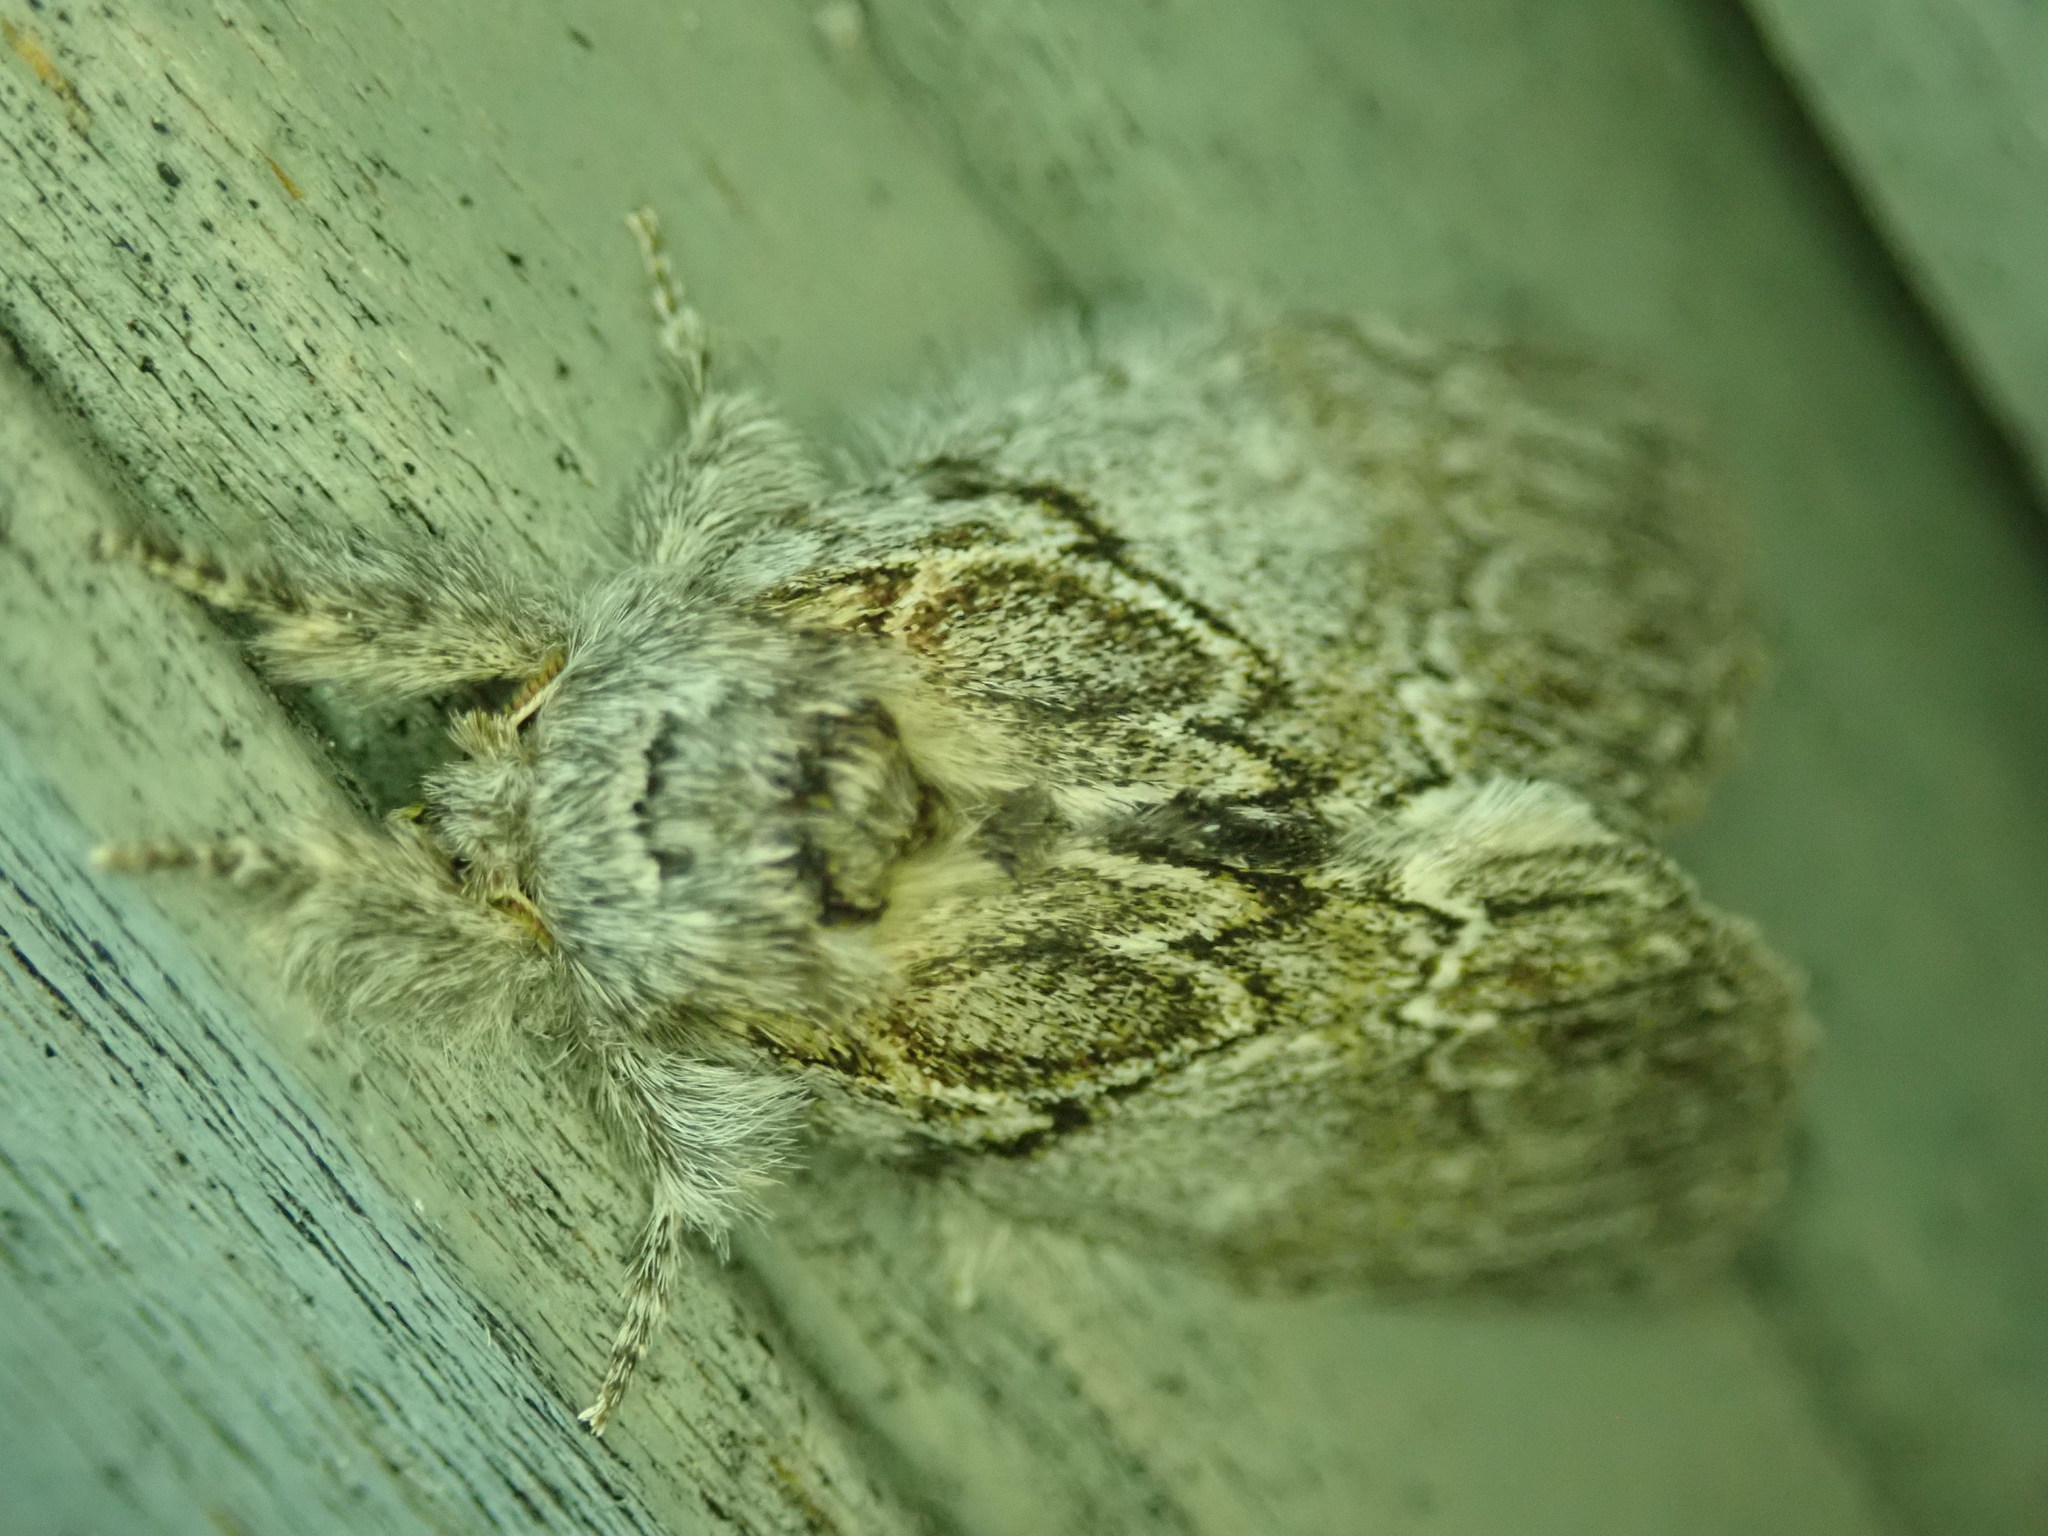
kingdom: Animalia
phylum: Arthropoda
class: Insecta
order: Lepidoptera
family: Notodontidae
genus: Peridea
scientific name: Peridea basitriens
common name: Oval-based prominent
